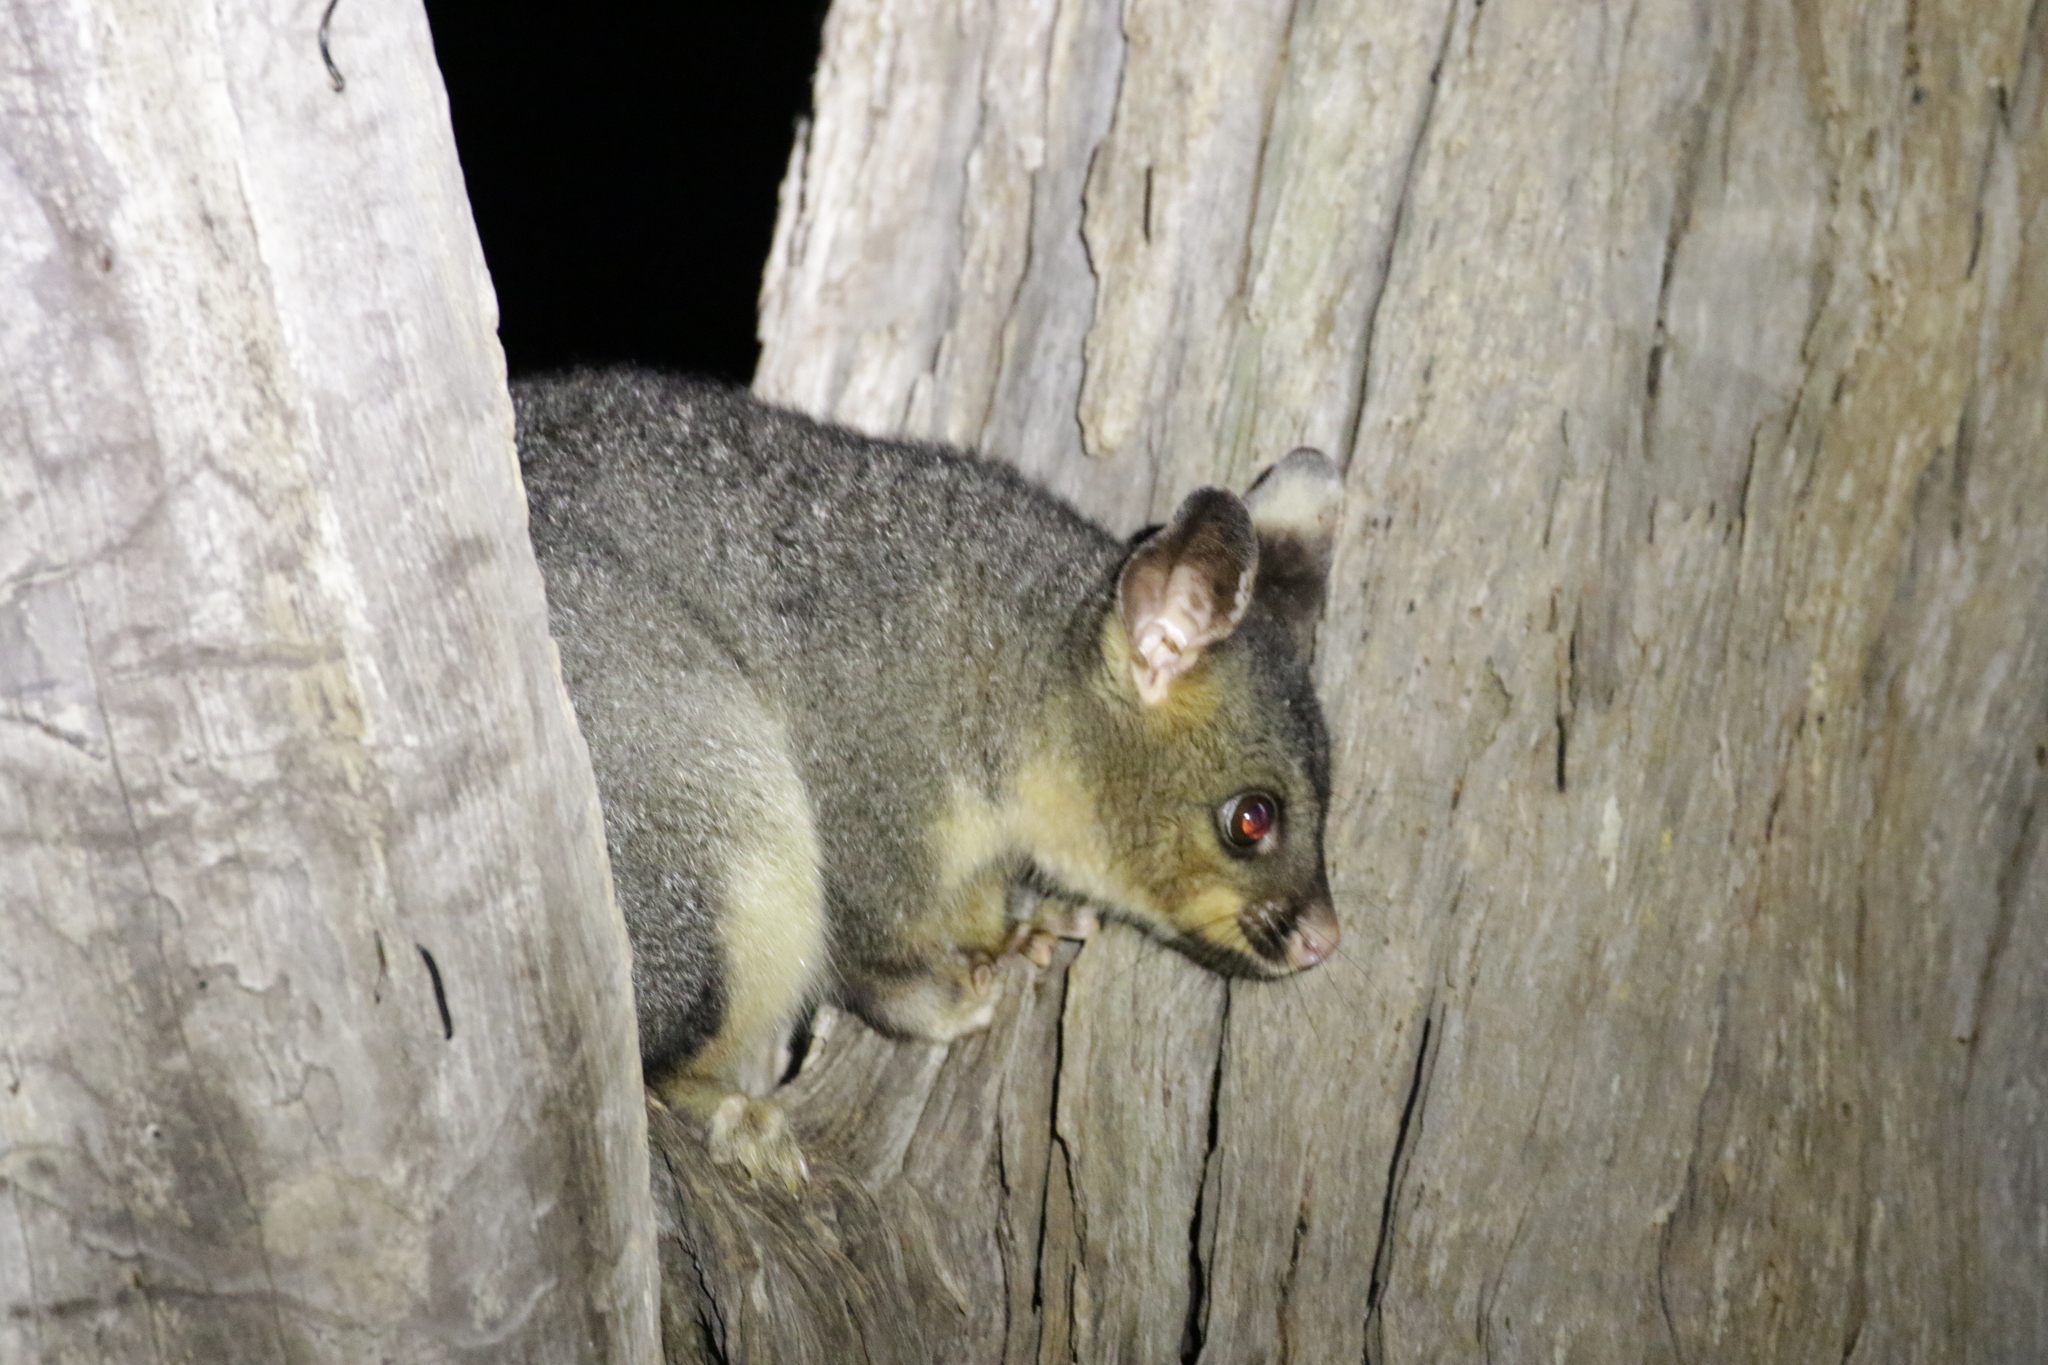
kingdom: Animalia
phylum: Chordata
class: Mammalia
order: Diprotodontia
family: Phalangeridae
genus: Trichosurus
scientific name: Trichosurus vulpecula
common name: Common brushtail
